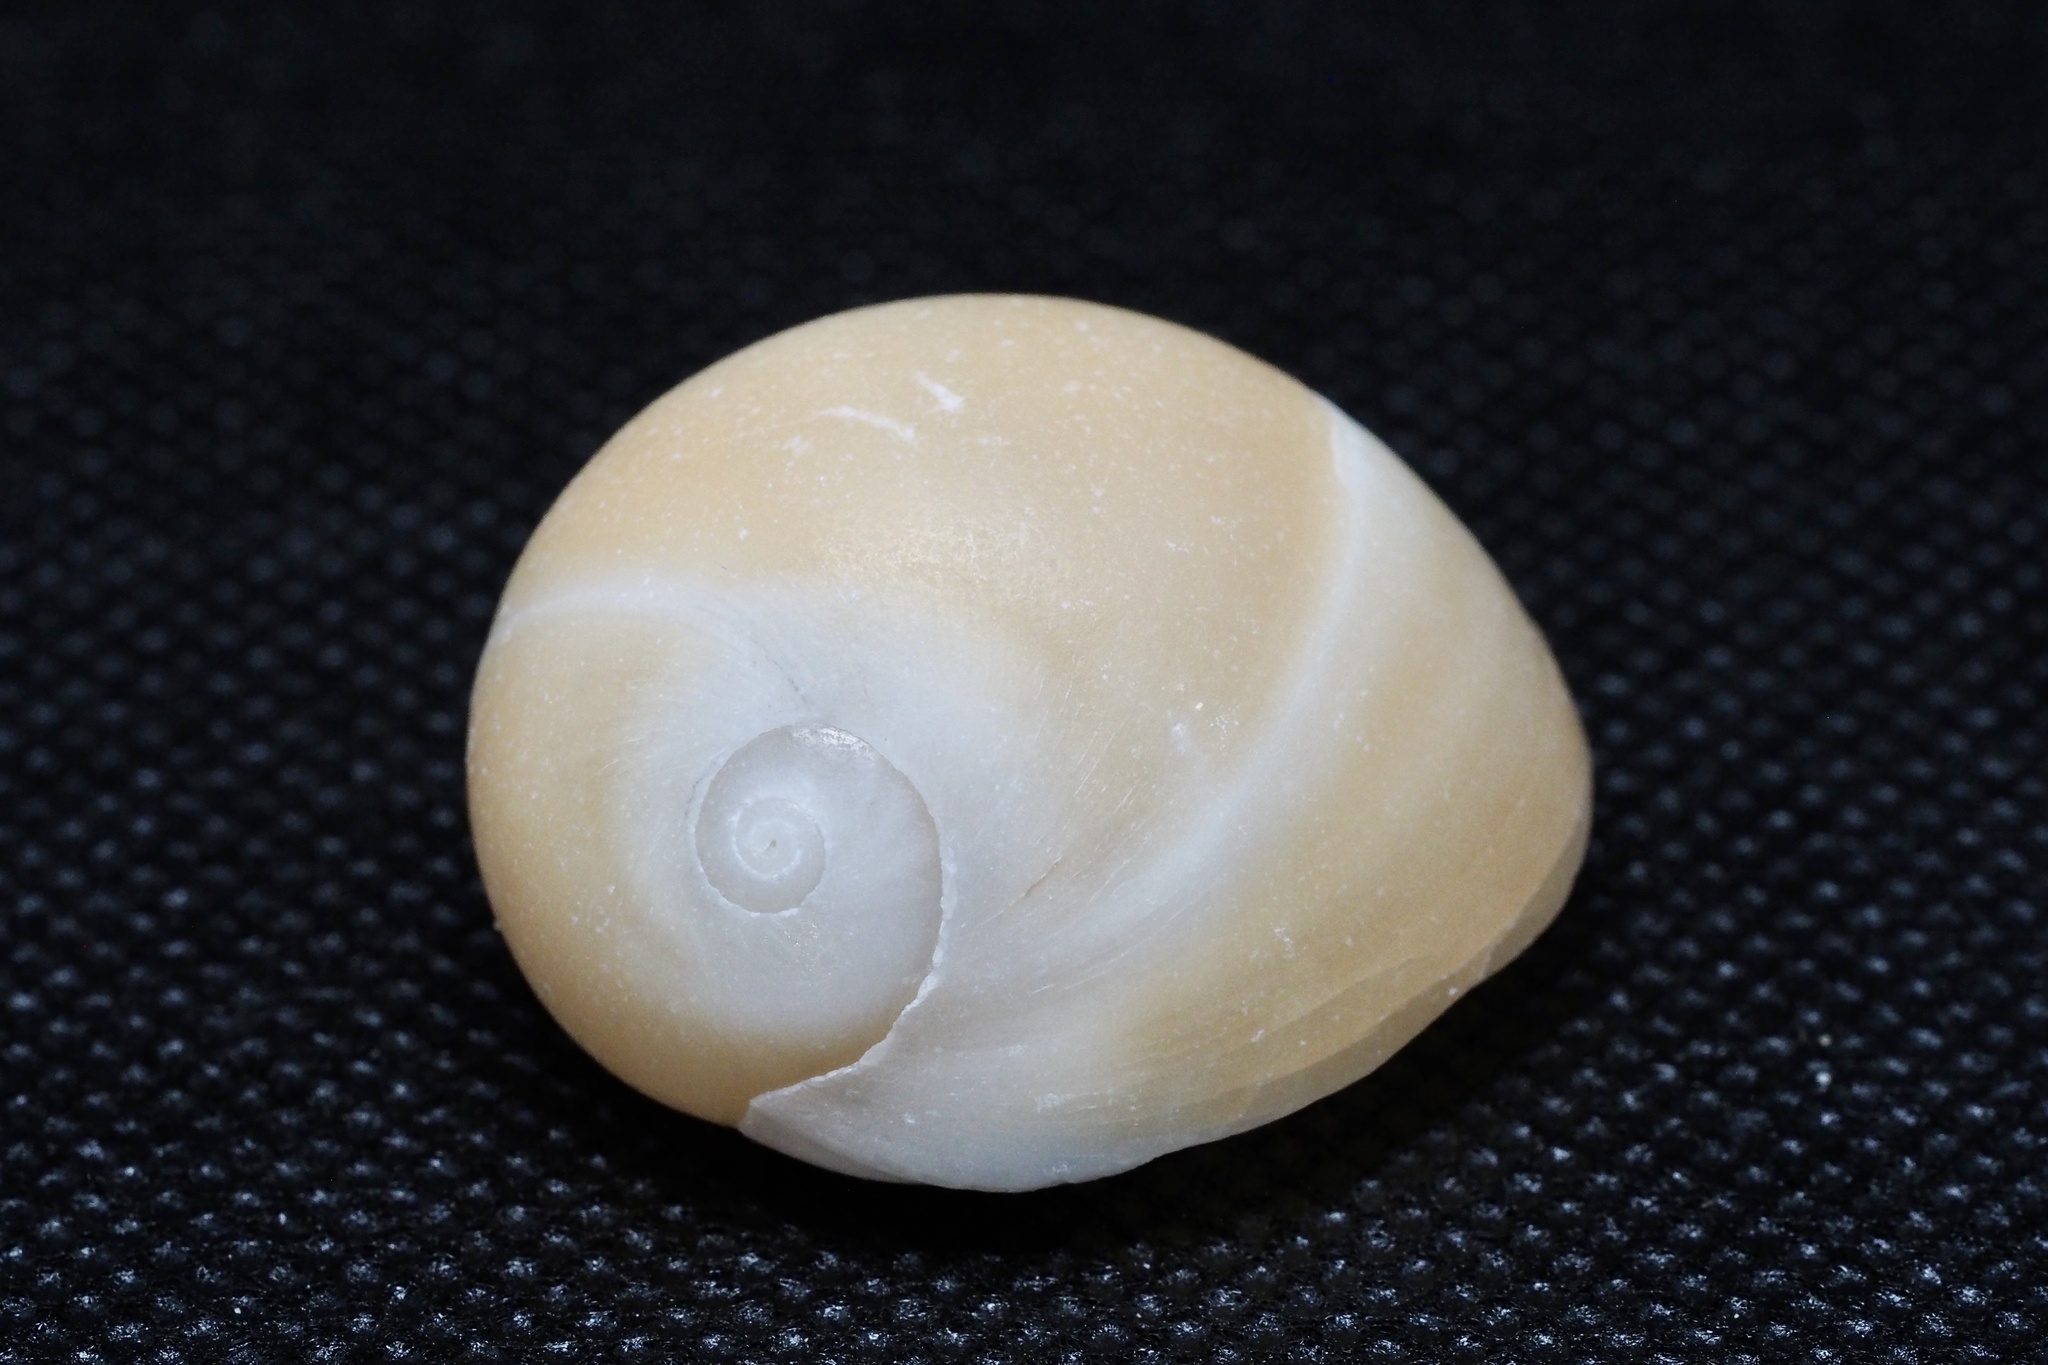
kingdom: Animalia
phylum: Mollusca
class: Gastropoda
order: Littorinimorpha
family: Naticidae
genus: Polinices
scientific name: Polinices sagamiensis
